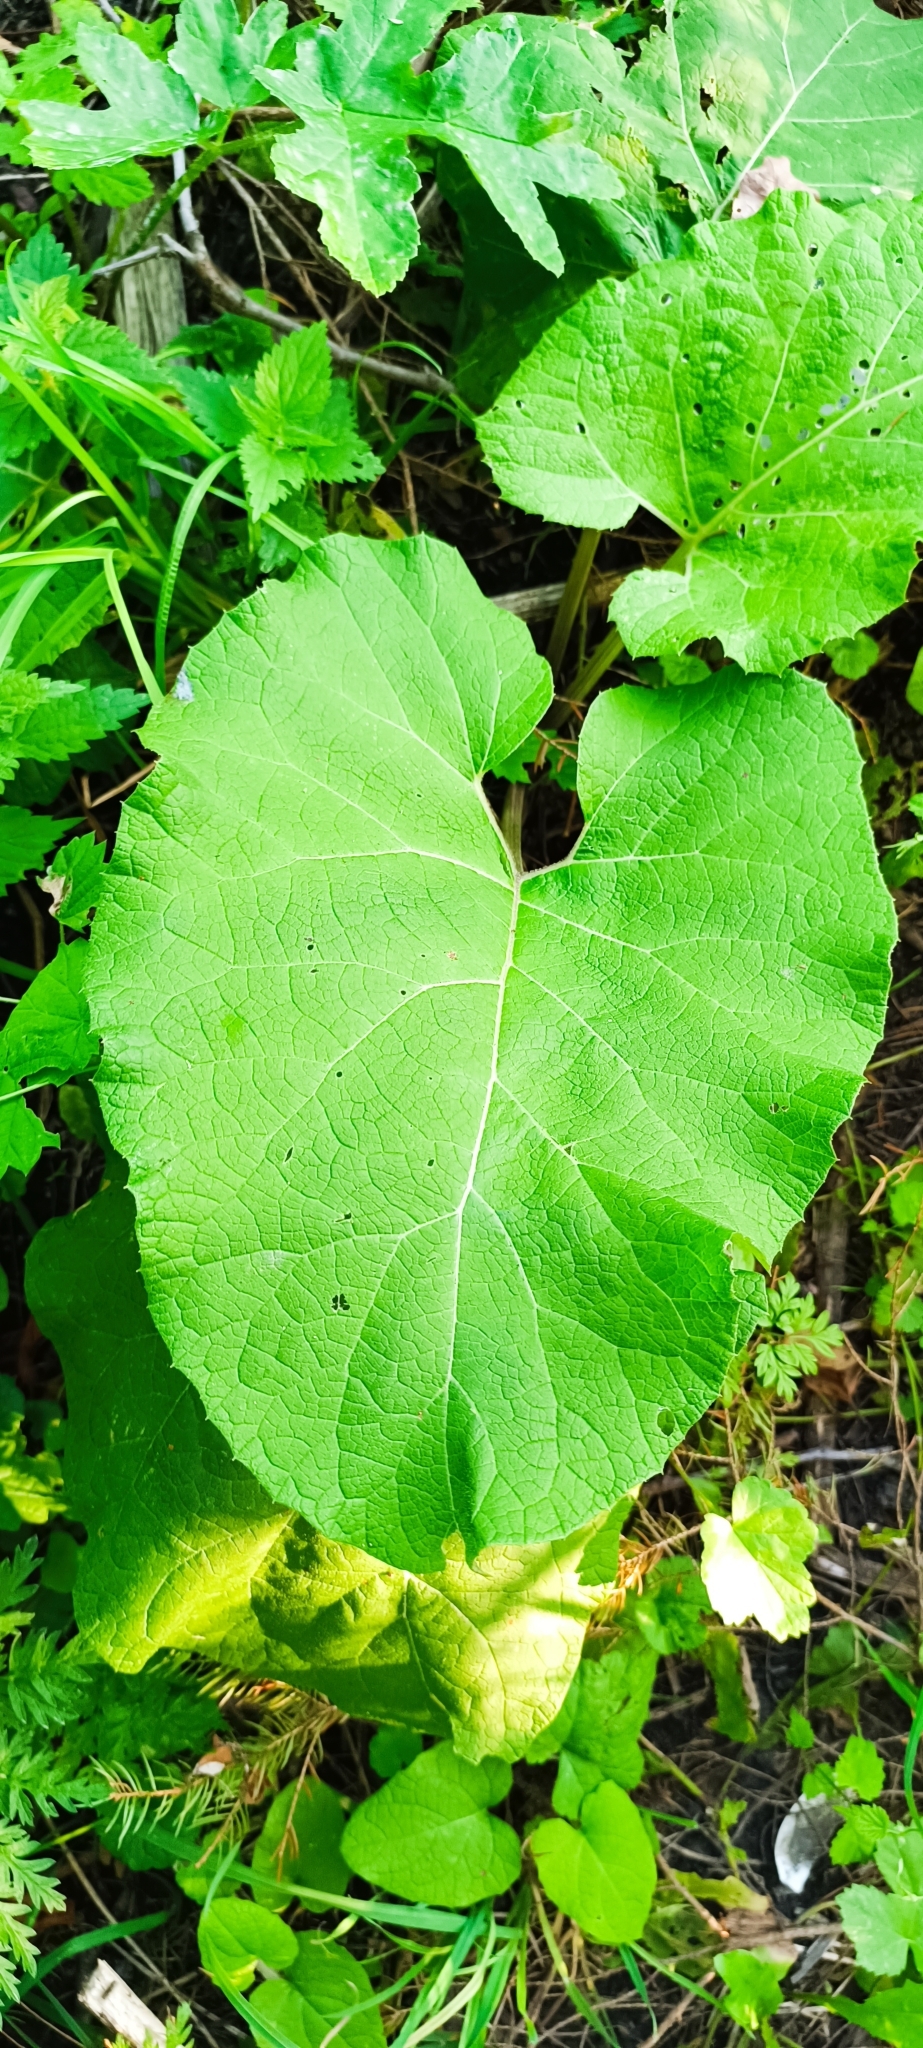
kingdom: Plantae
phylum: Tracheophyta
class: Magnoliopsida
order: Asterales
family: Asteraceae
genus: Arctium
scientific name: Arctium
